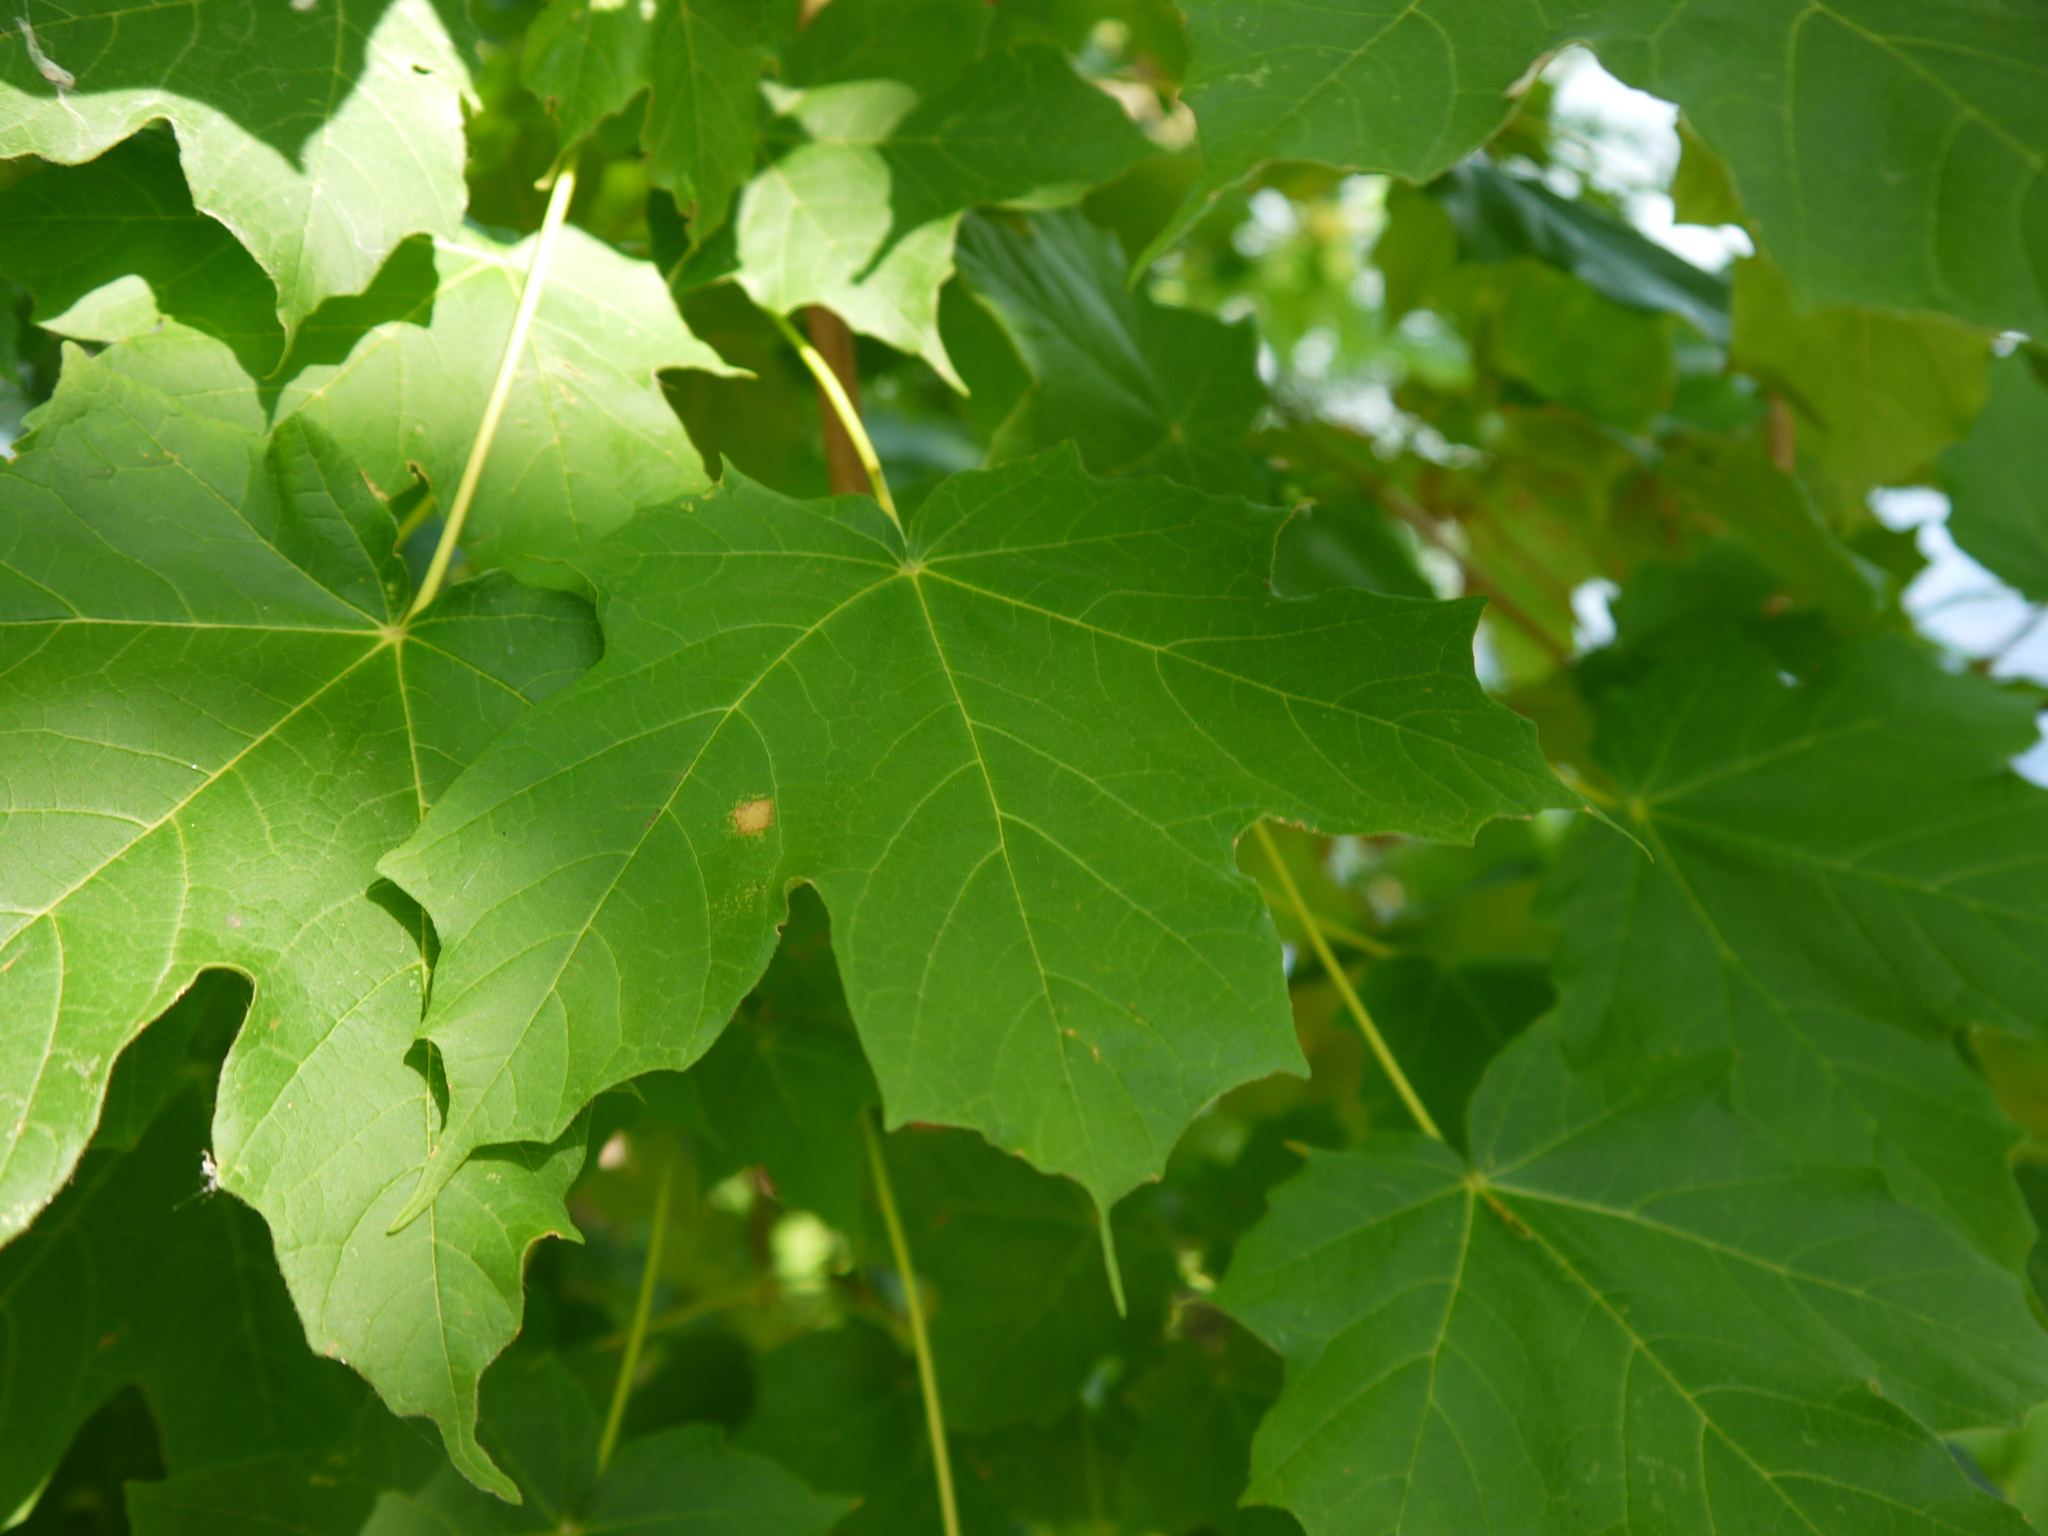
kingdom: Plantae
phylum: Tracheophyta
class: Magnoliopsida
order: Sapindales
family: Sapindaceae
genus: Acer
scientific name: Acer saccharum
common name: Sugar maple
